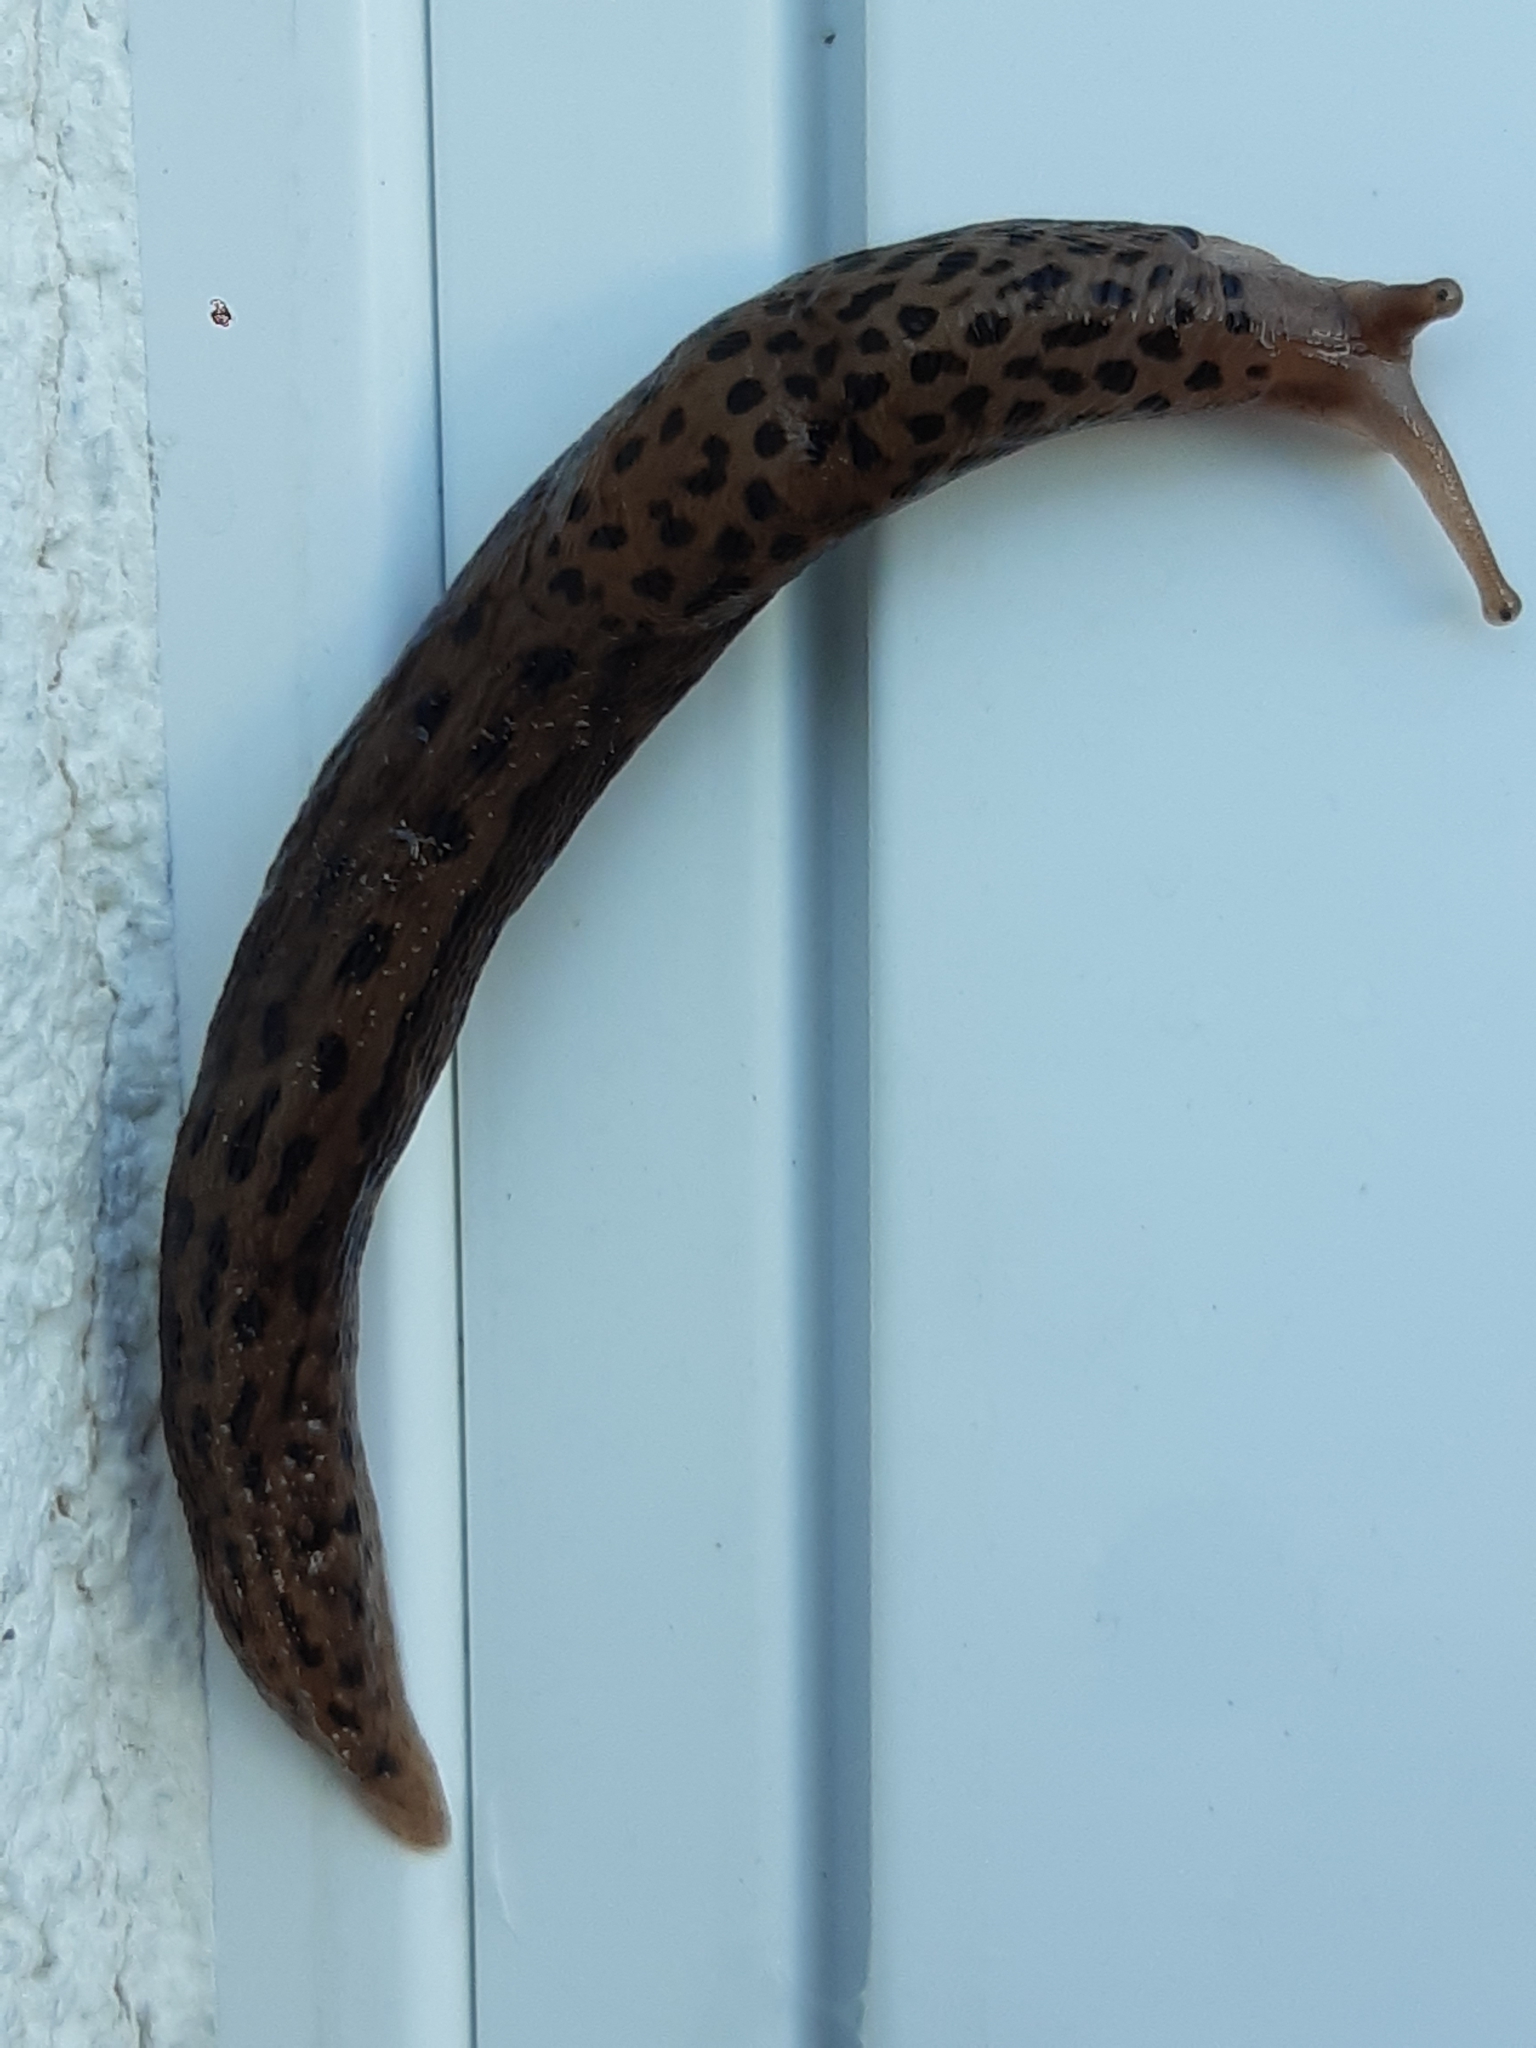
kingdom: Animalia
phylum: Mollusca
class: Gastropoda
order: Stylommatophora
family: Limacidae
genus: Limax
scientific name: Limax maximus
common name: Great grey slug
